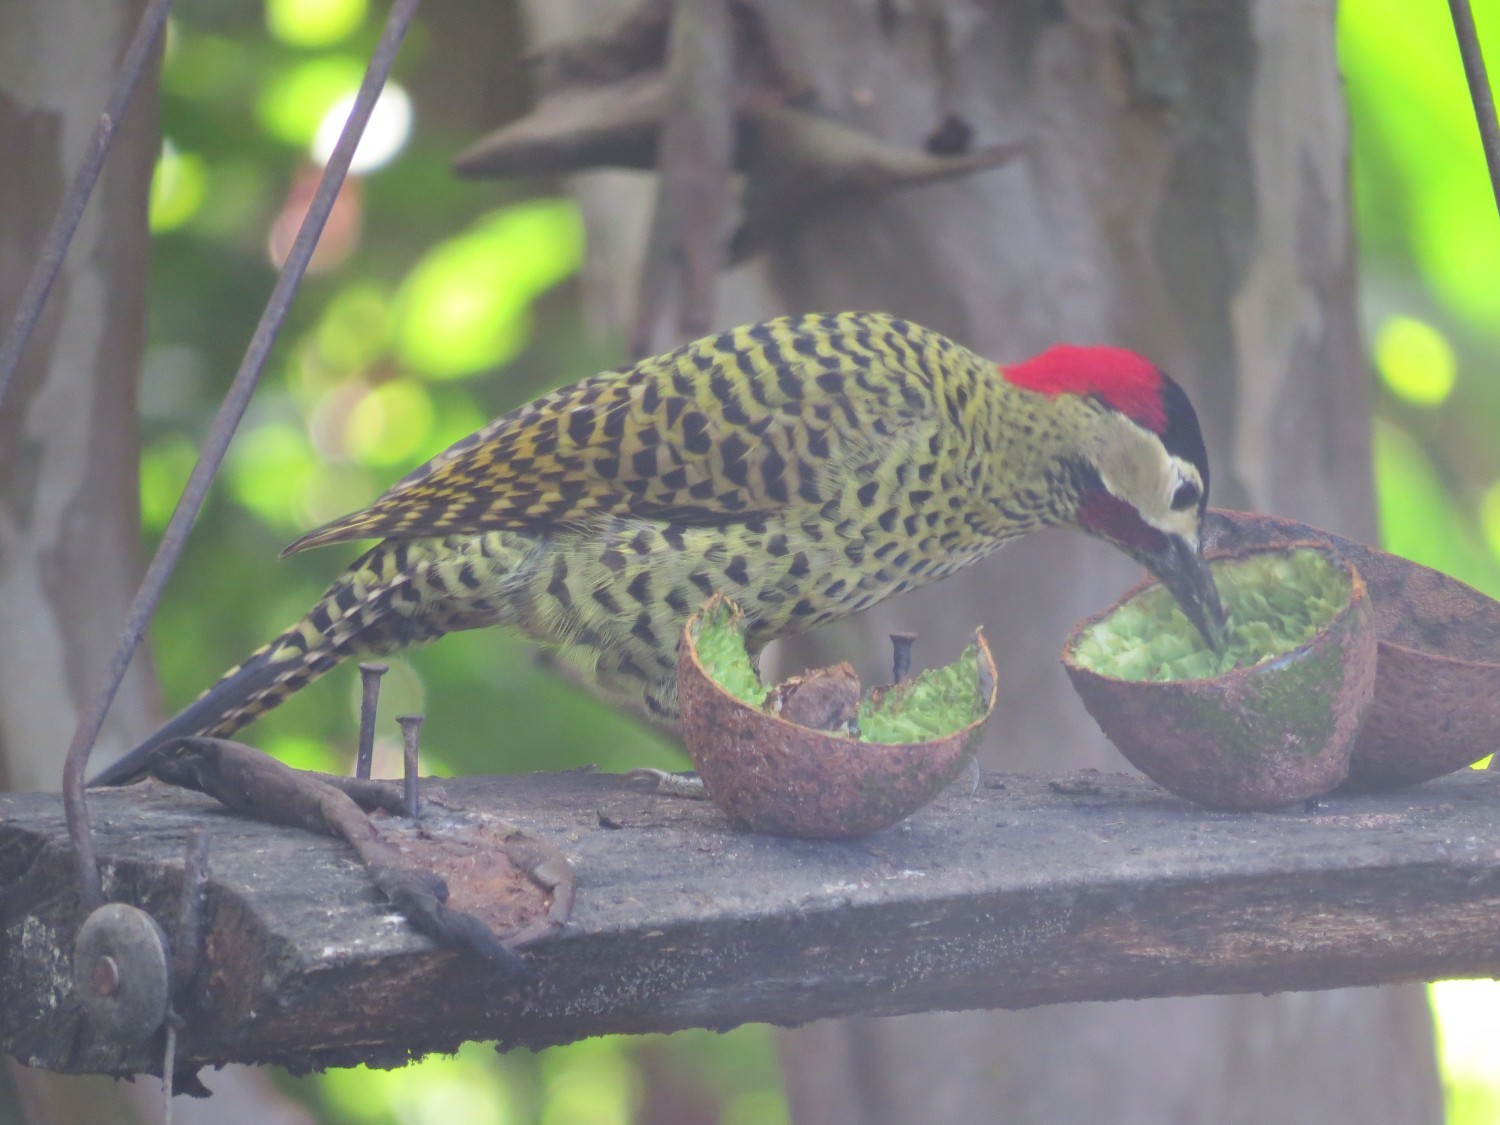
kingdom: Animalia
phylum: Chordata
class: Aves
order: Piciformes
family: Picidae
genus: Colaptes
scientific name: Colaptes melanochloros
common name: Green-barred woodpecker
